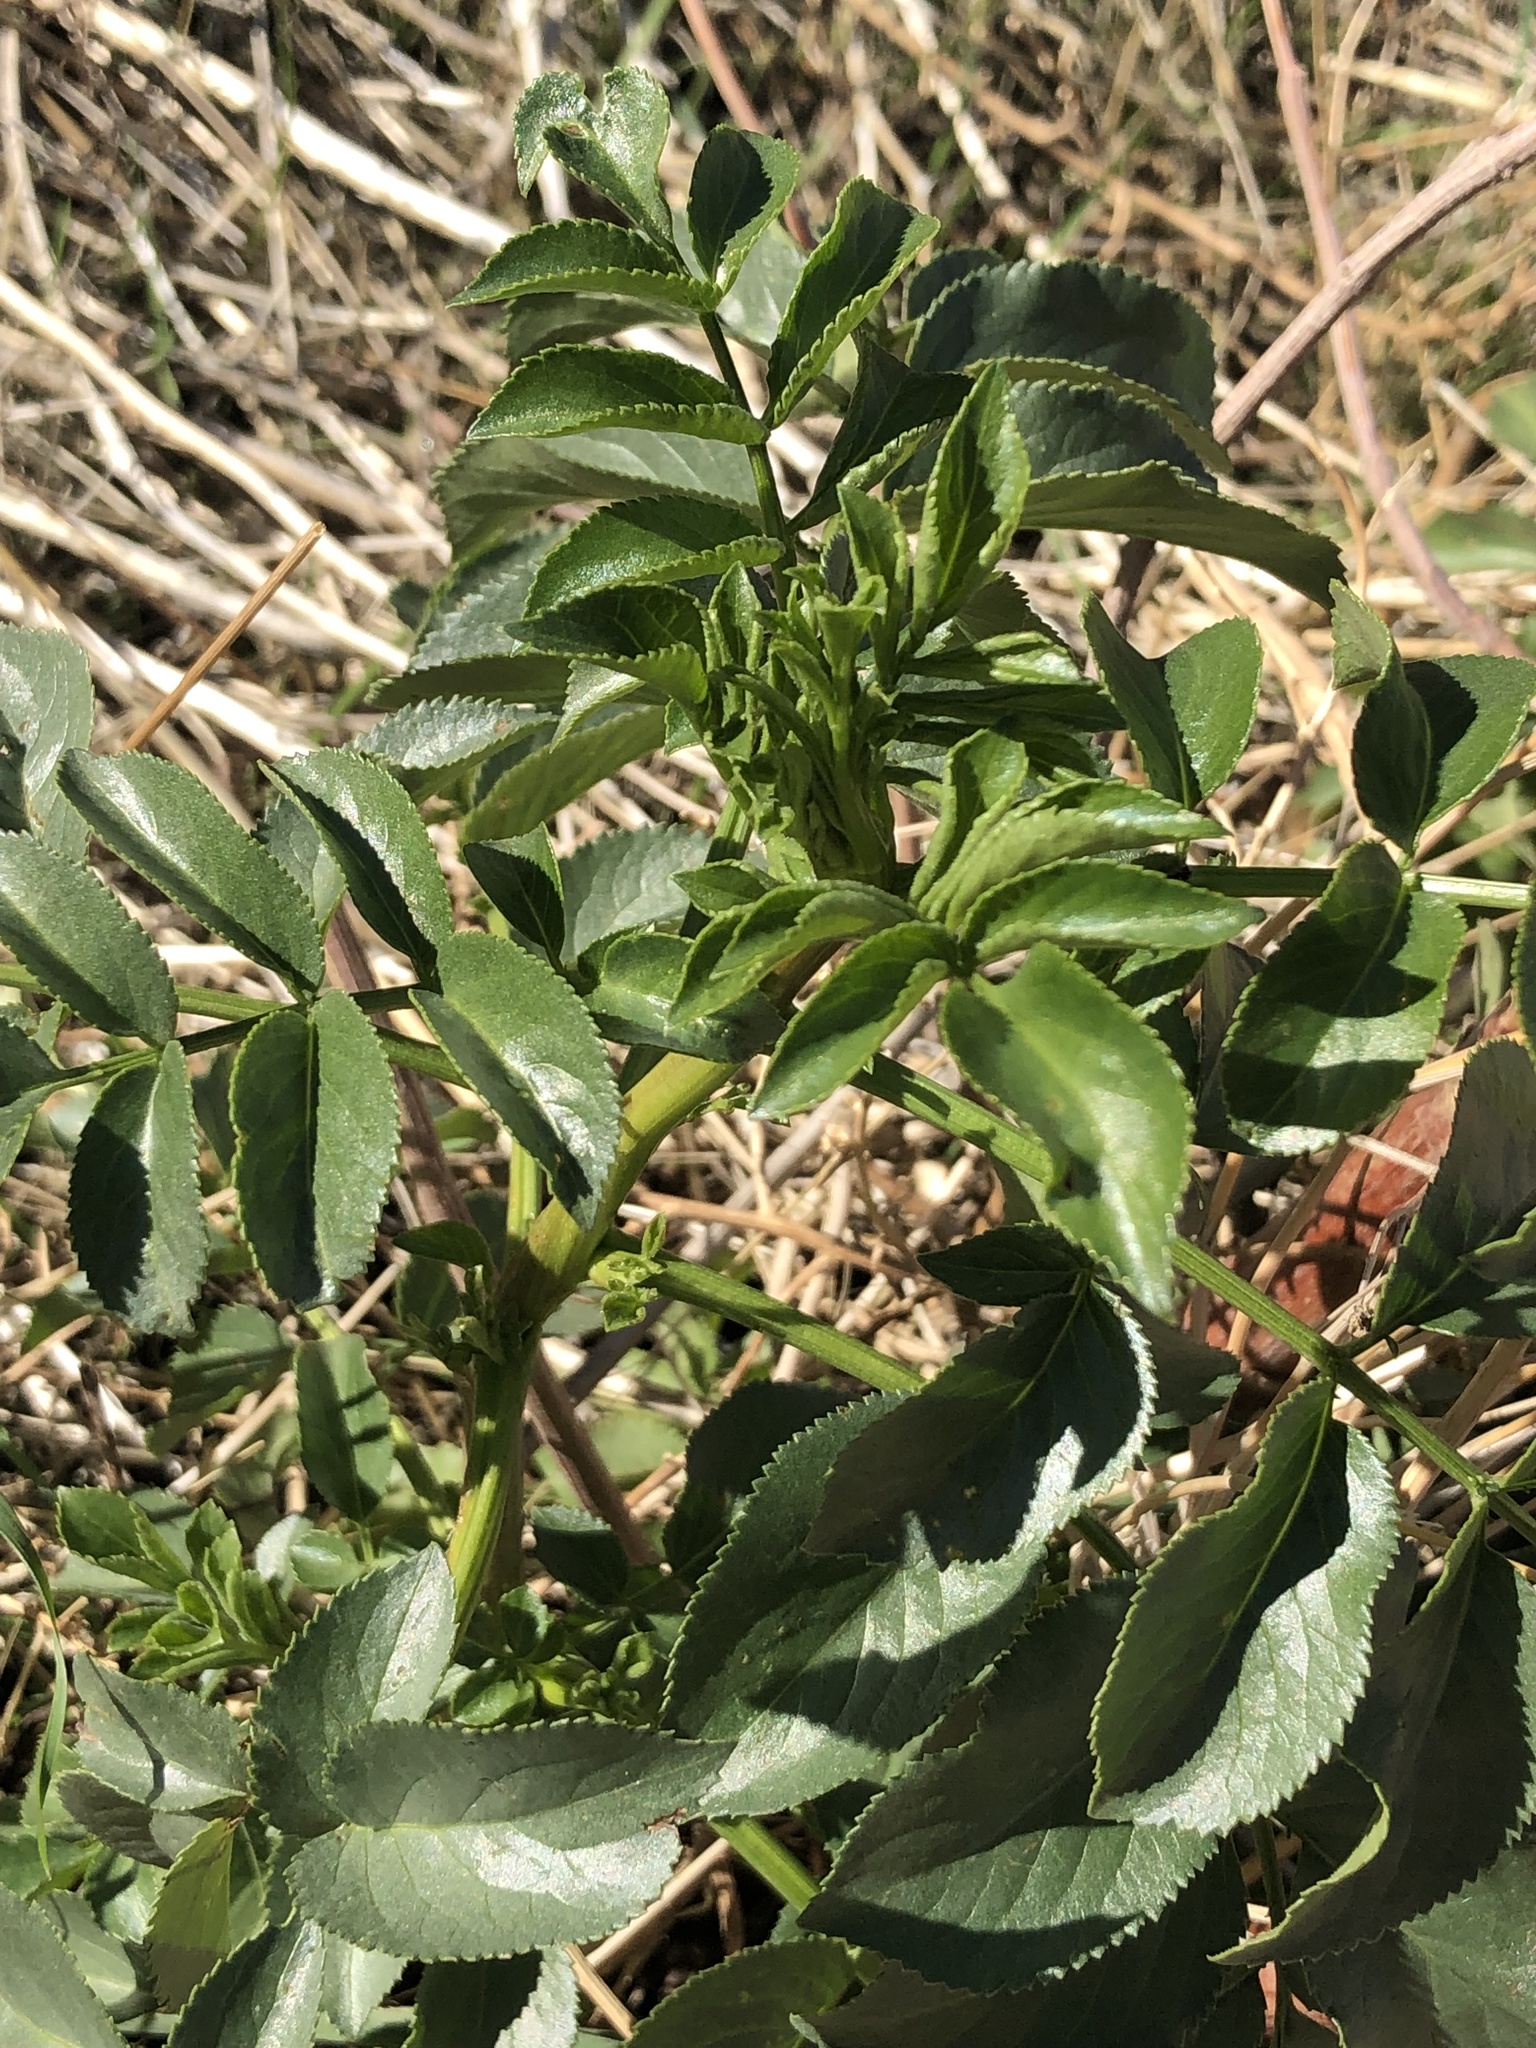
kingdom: Plantae
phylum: Tracheophyta
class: Magnoliopsida
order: Dipsacales
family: Viburnaceae
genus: Sambucus
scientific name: Sambucus cerulea
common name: Blue elder
